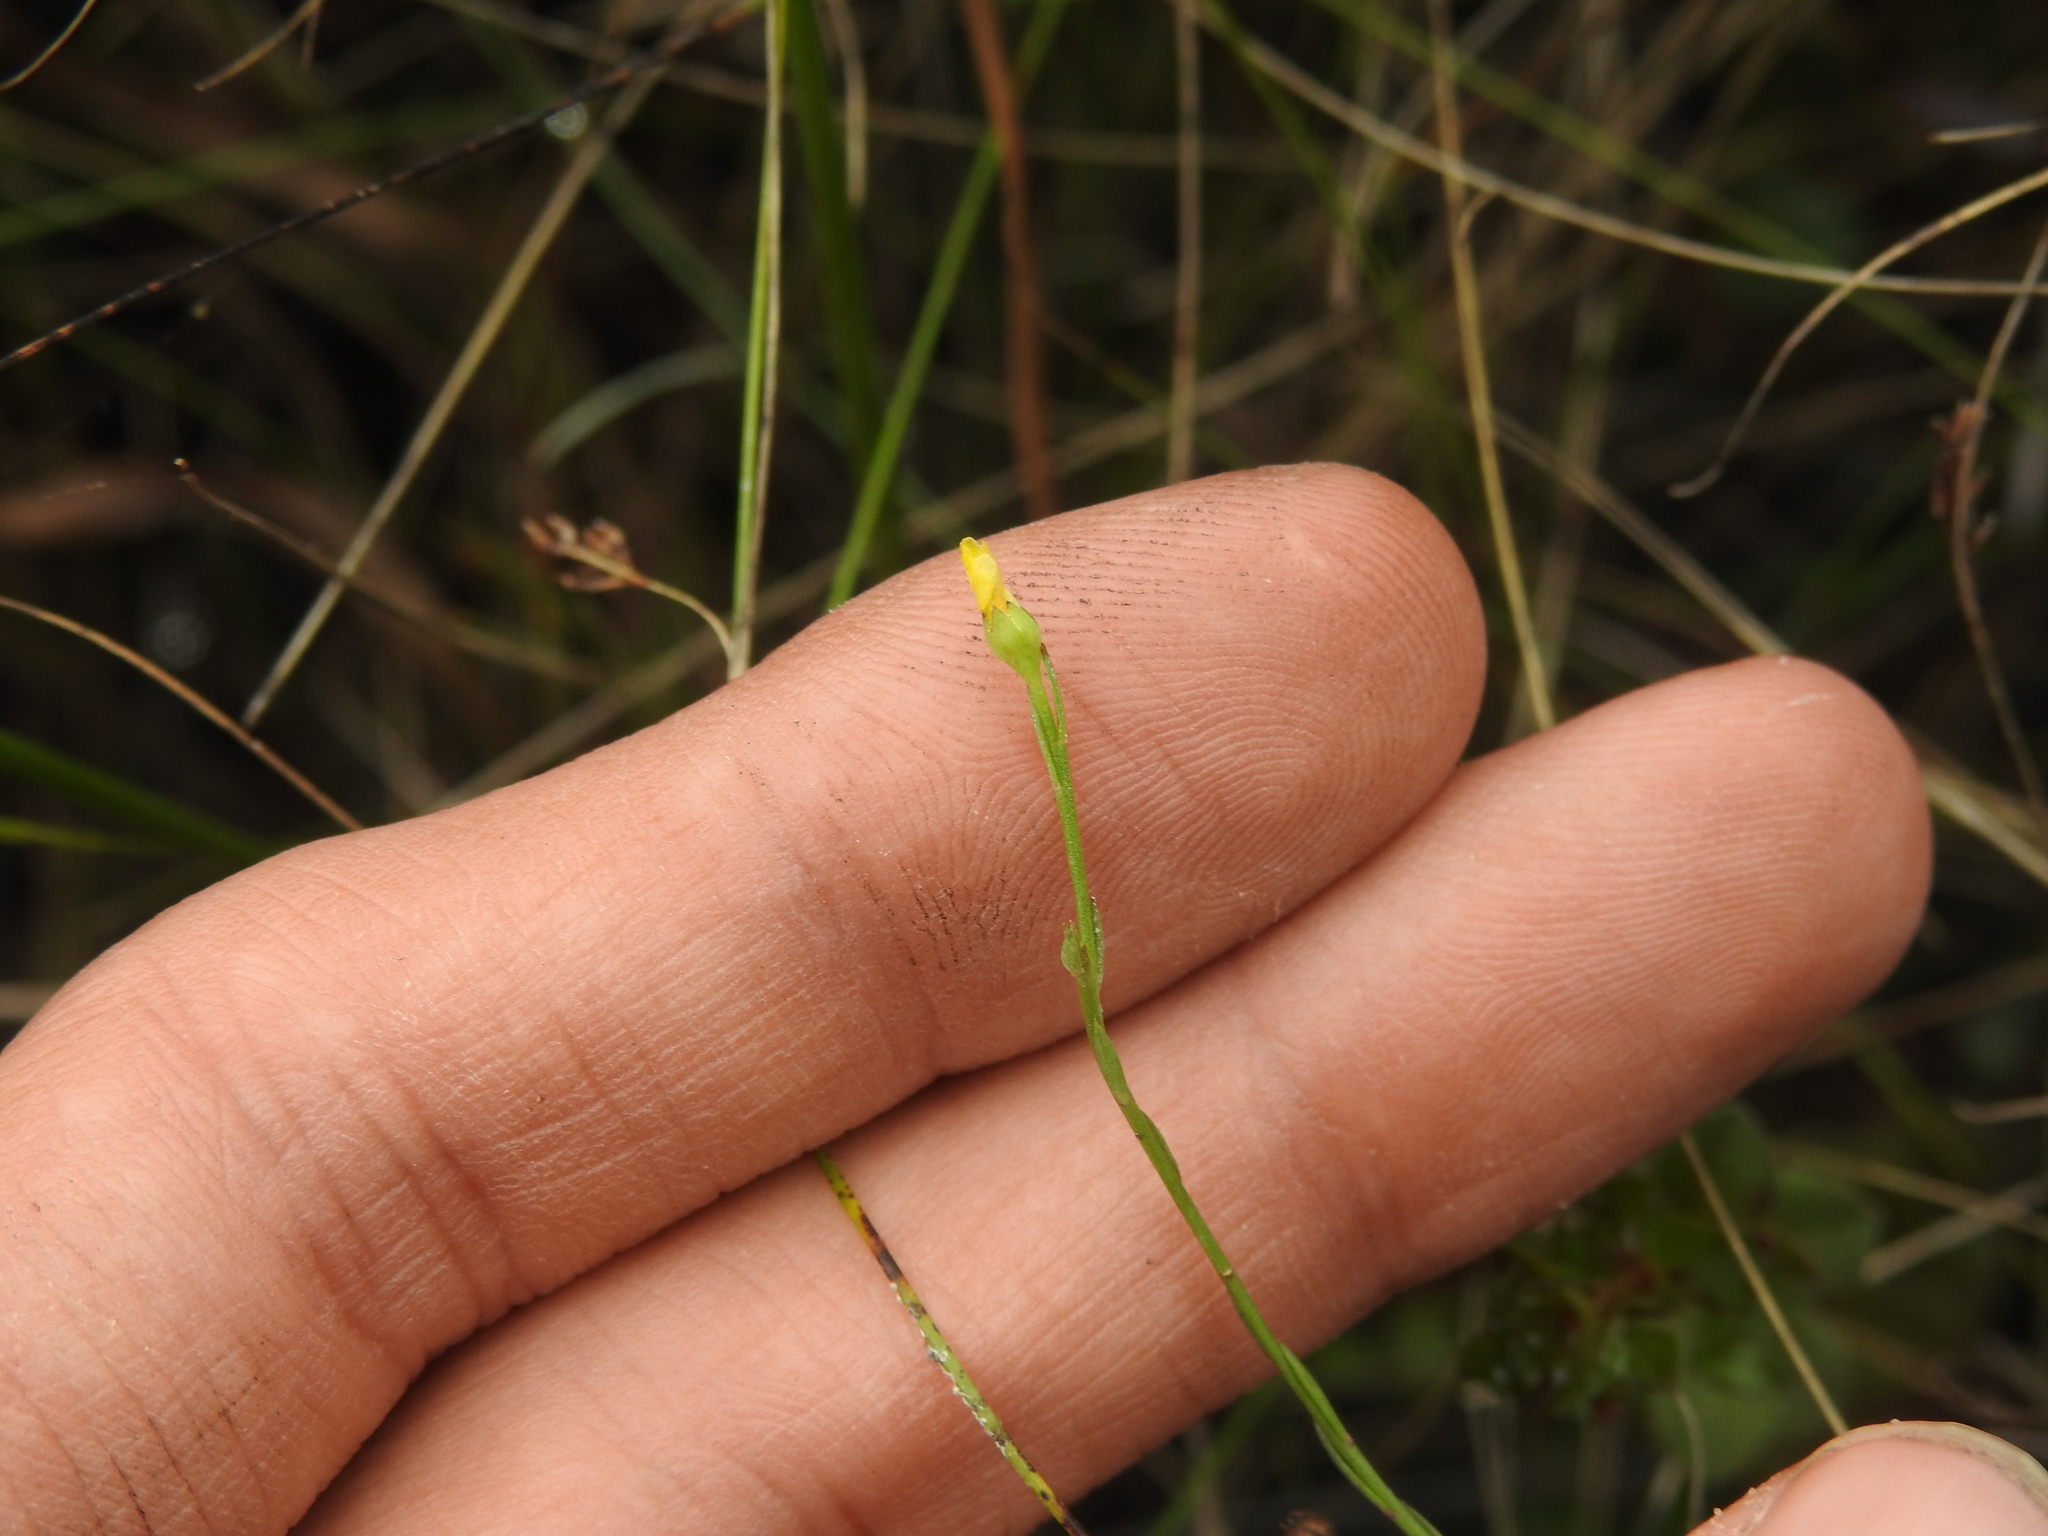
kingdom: Plantae
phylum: Tracheophyta
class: Magnoliopsida
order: Malpighiales
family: Linaceae
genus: Linum
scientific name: Linum medium
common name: Stiff yellow flax
